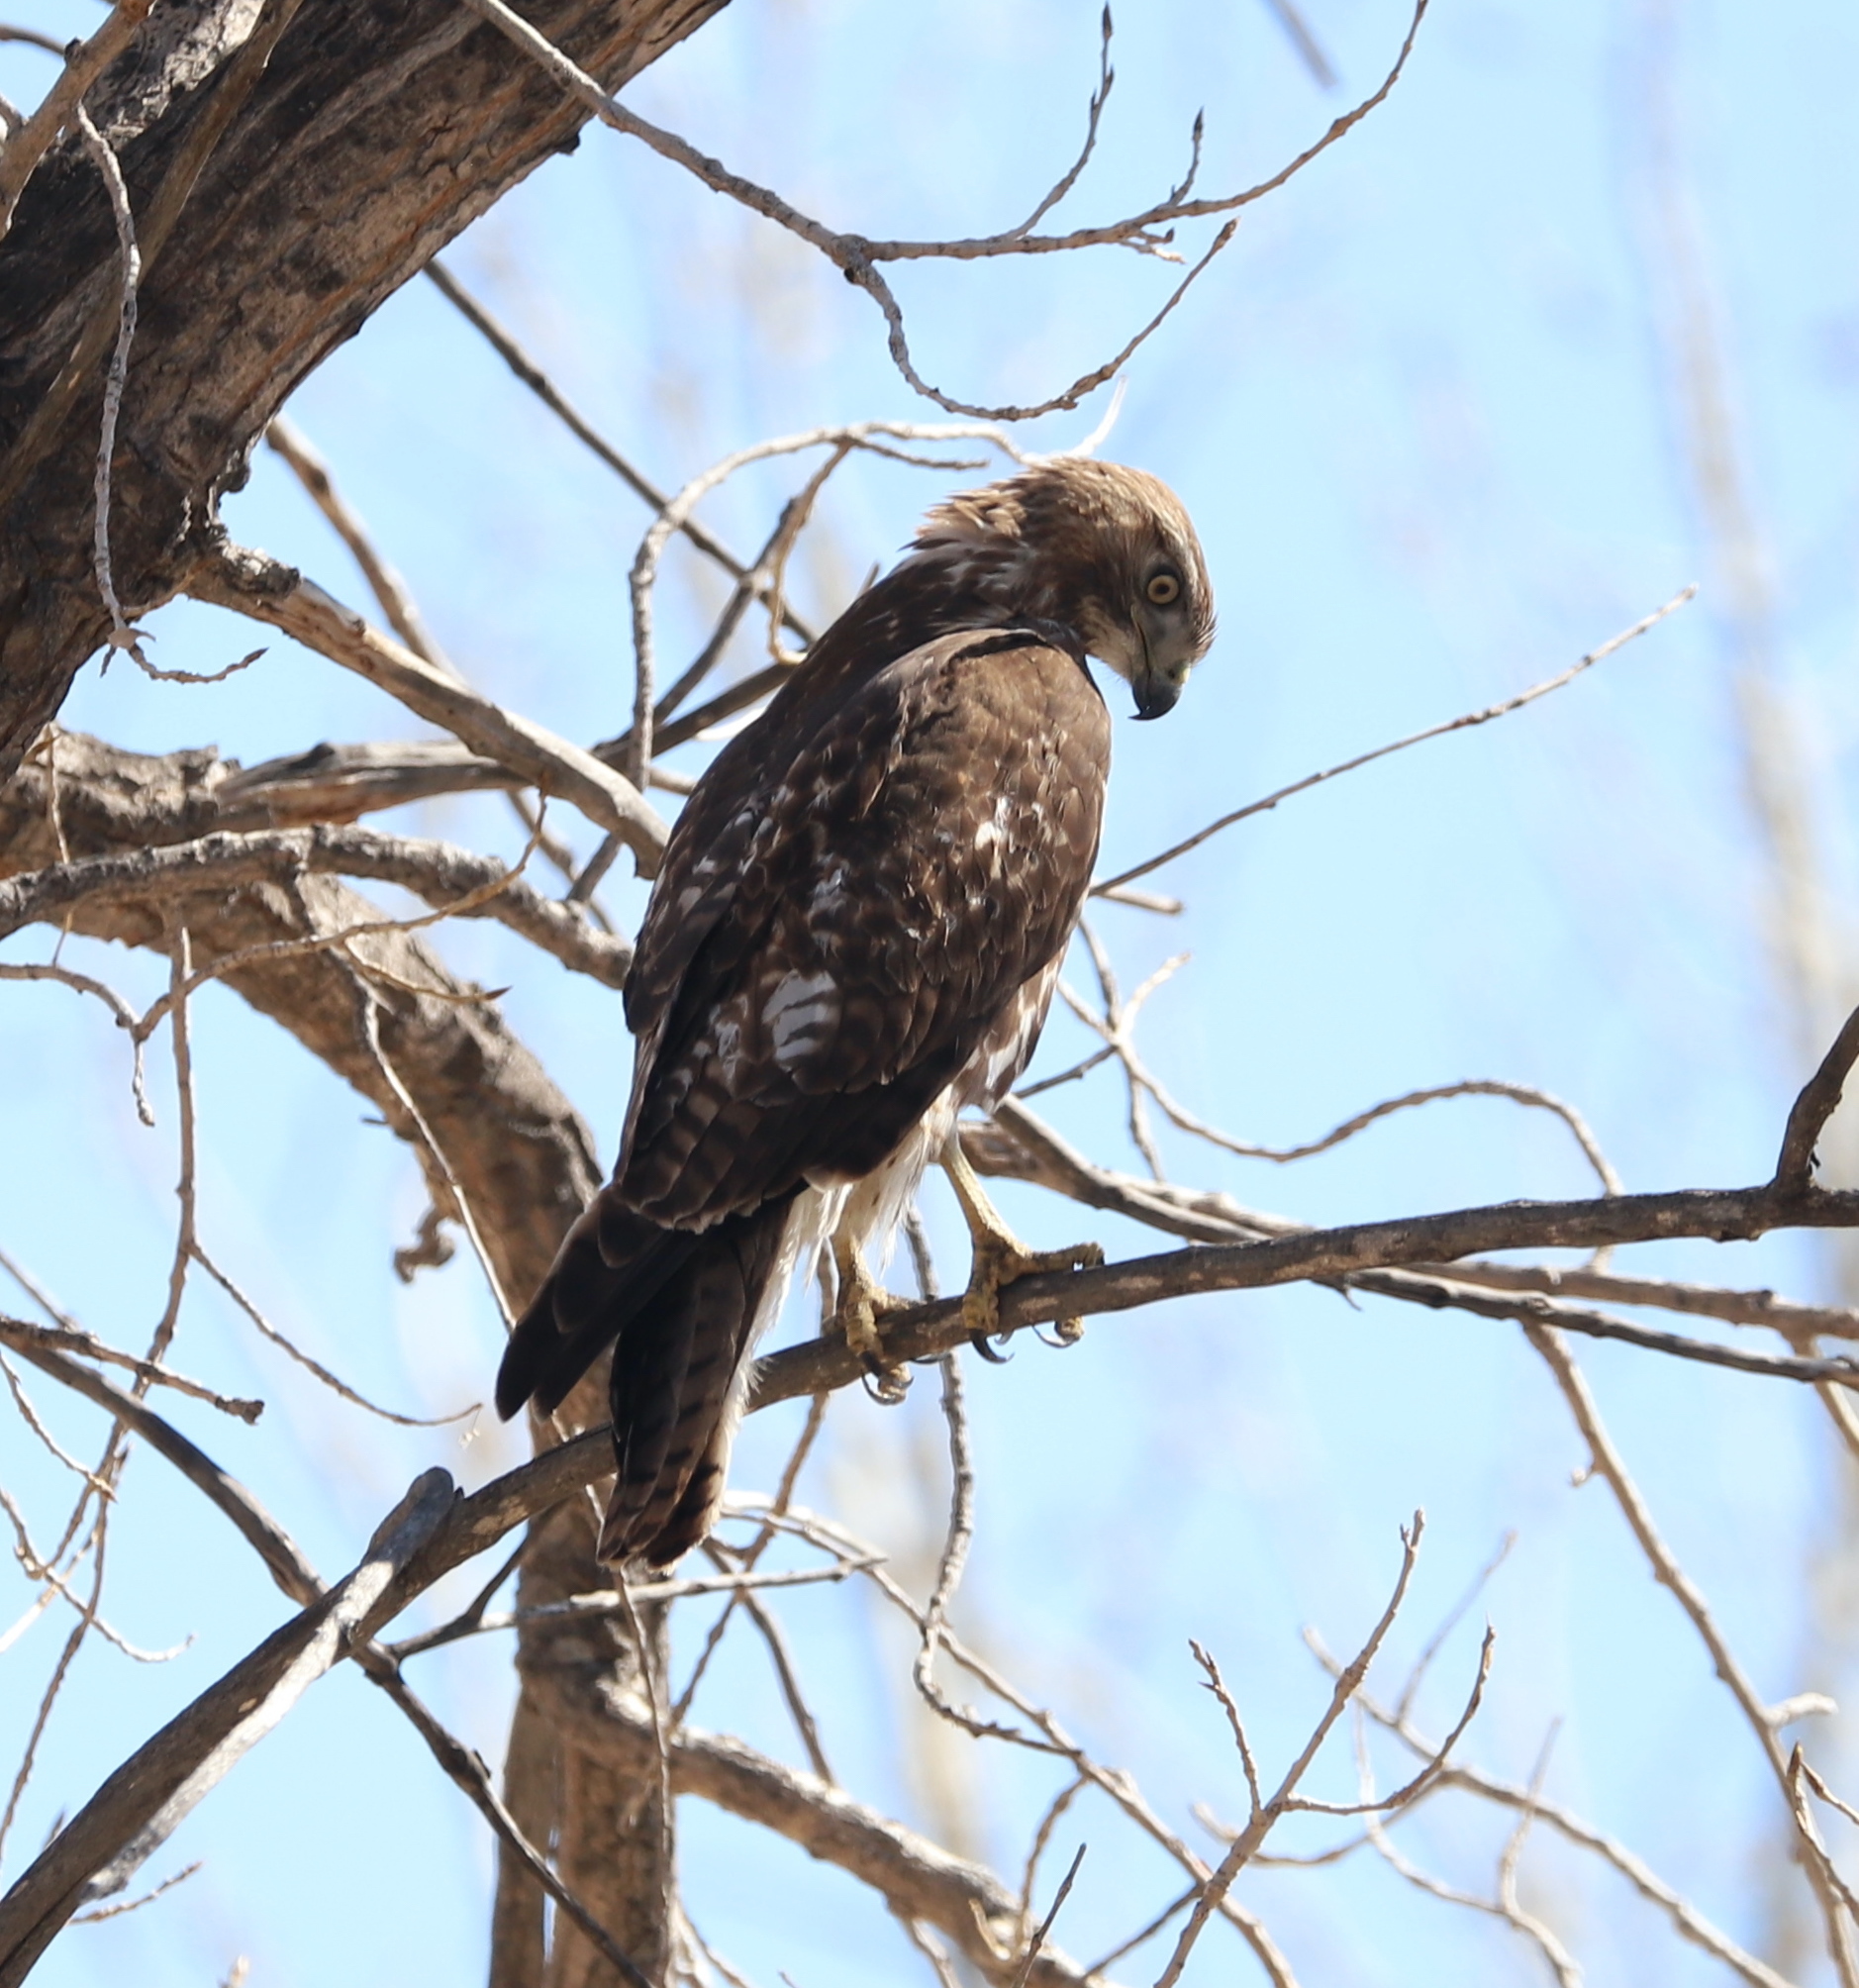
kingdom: Animalia
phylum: Chordata
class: Aves
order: Accipitriformes
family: Accipitridae
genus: Buteo
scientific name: Buteo jamaicensis
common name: Red-tailed hawk
